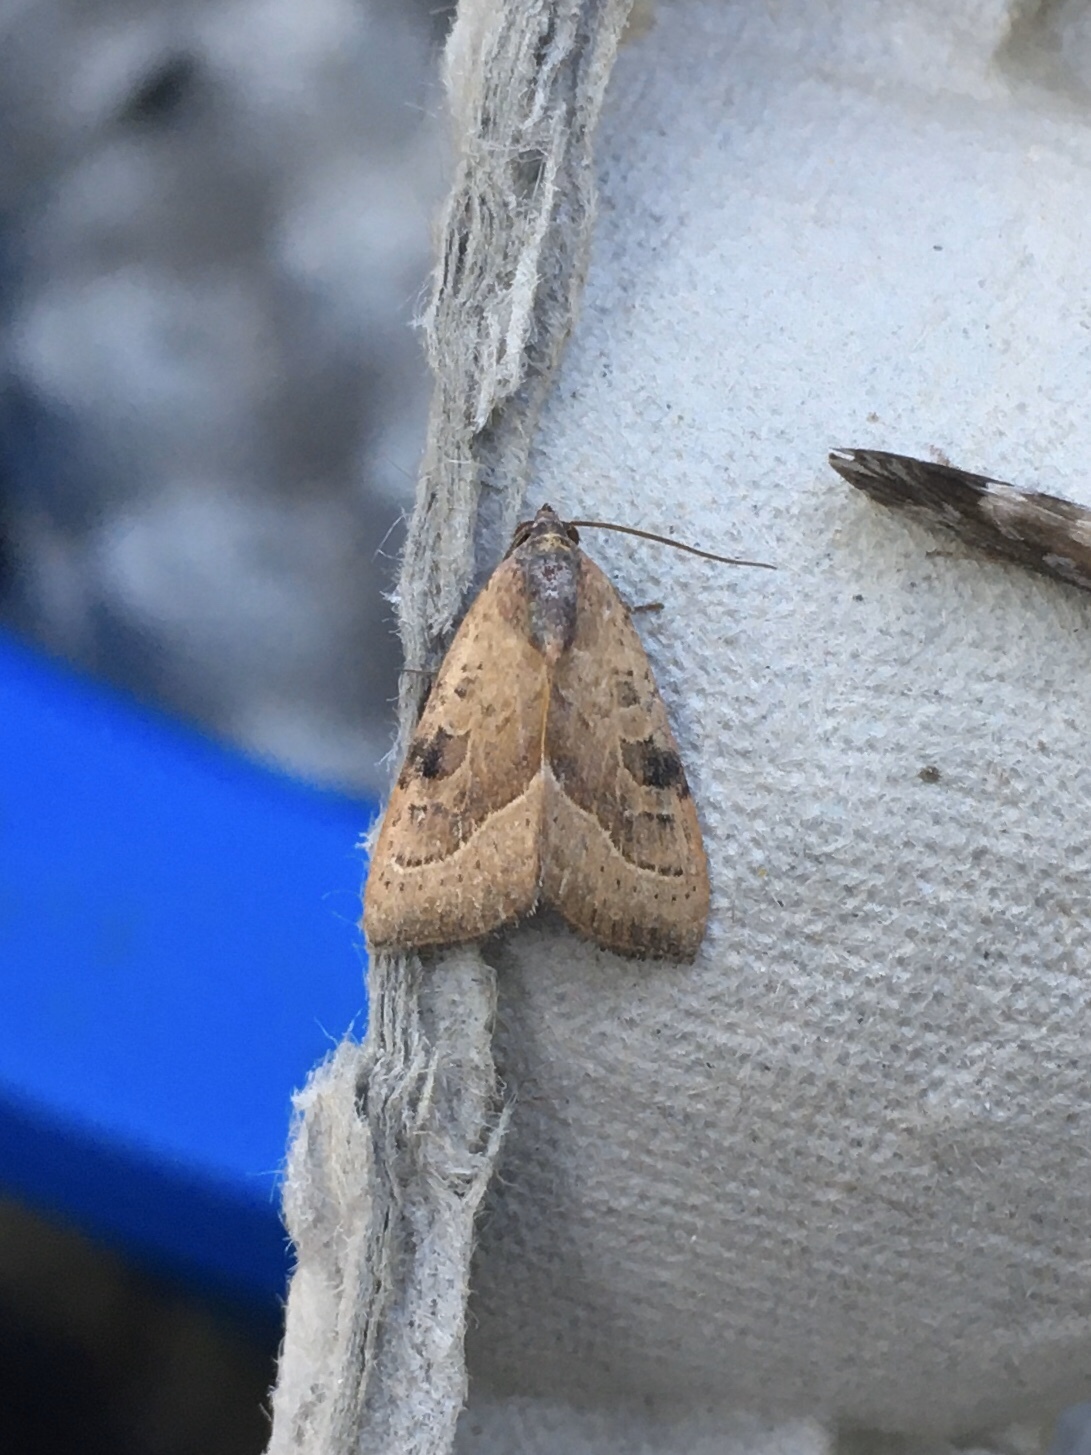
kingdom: Animalia
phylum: Arthropoda
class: Insecta
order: Lepidoptera
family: Noctuidae
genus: Galgula
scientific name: Galgula partita
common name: Wedgeling
